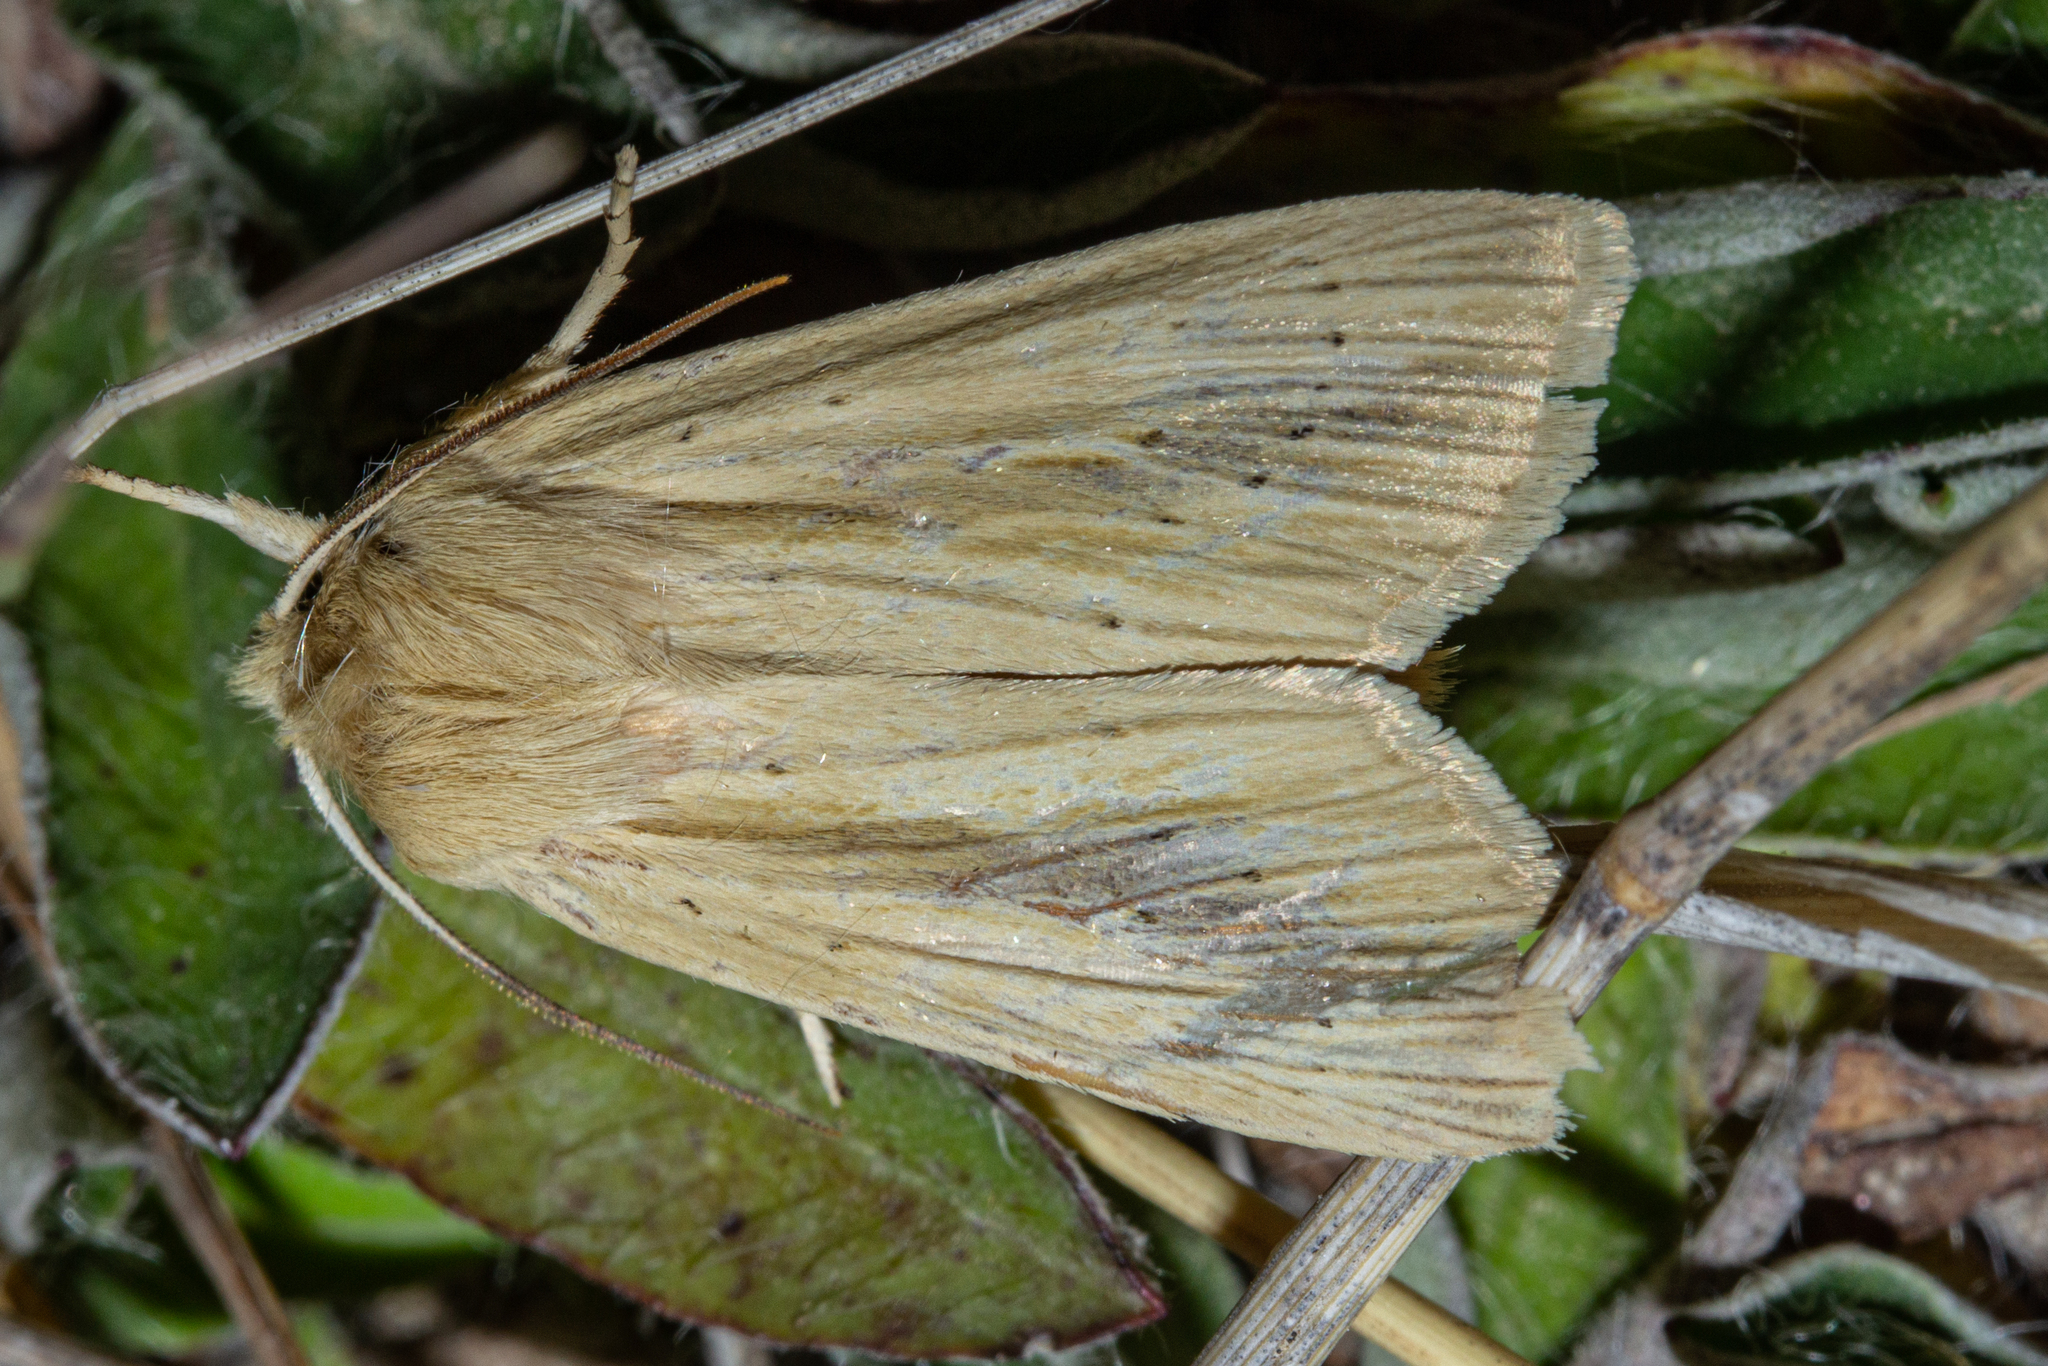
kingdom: Animalia
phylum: Arthropoda
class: Insecta
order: Lepidoptera
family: Noctuidae
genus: Ichneutica
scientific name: Ichneutica semivittata
